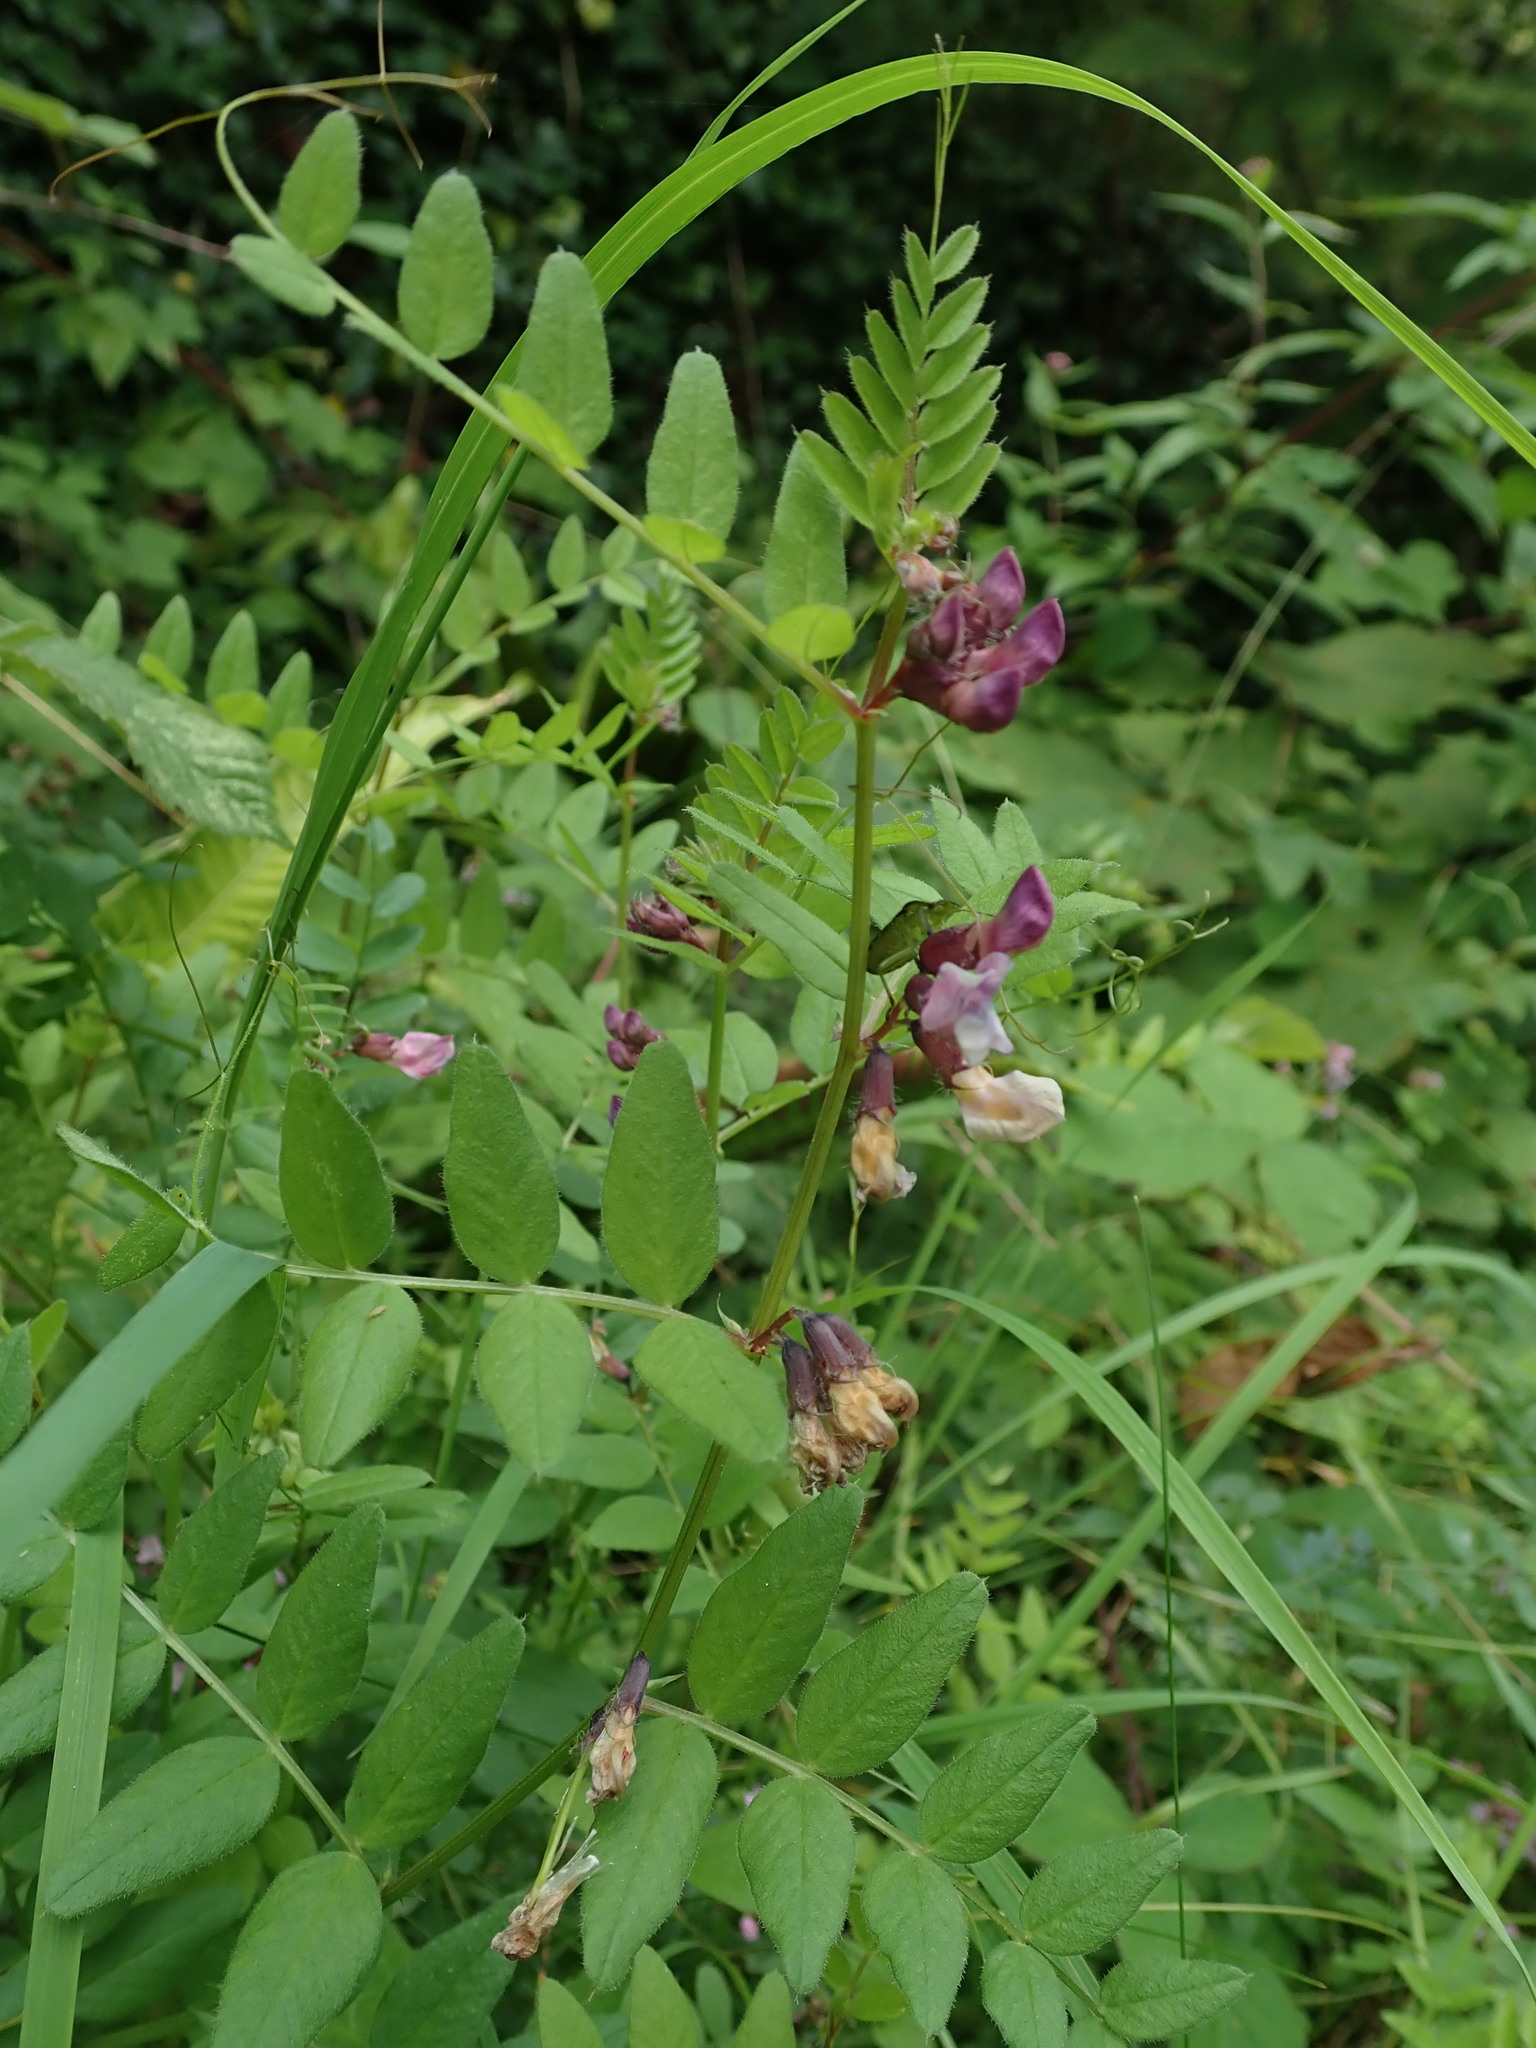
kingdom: Plantae
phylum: Tracheophyta
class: Magnoliopsida
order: Fabales
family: Fabaceae
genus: Vicia
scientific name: Vicia sepium
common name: Bush vetch
